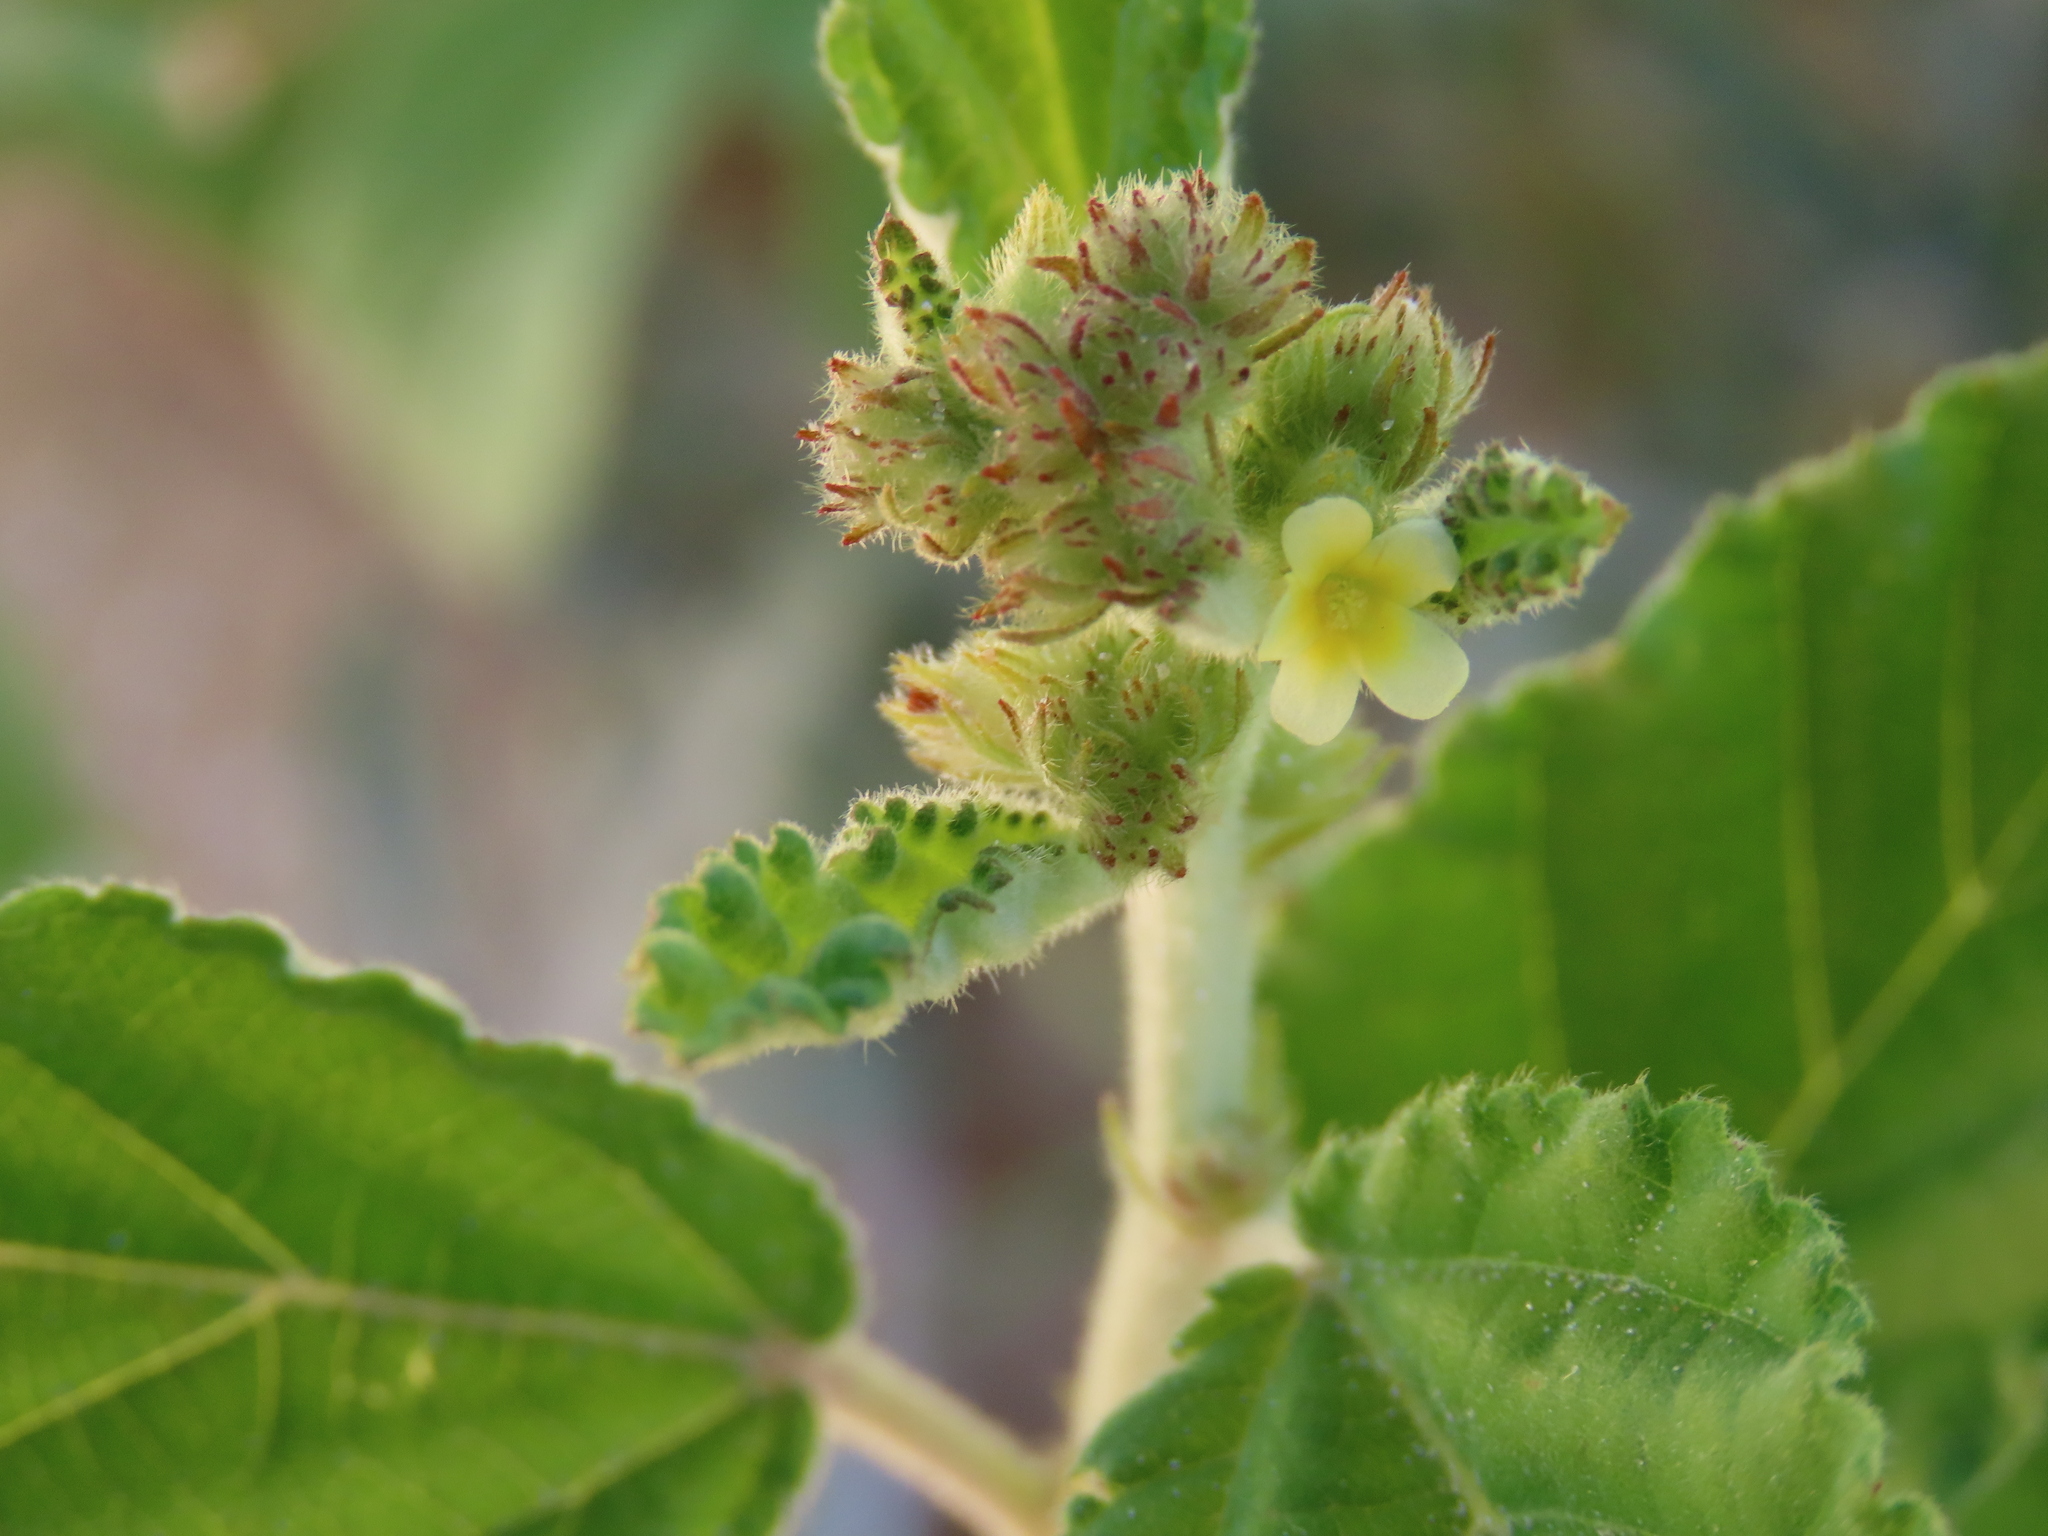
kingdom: Plantae
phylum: Tracheophyta
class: Magnoliopsida
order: Malvales
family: Malvaceae
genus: Waltheria
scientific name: Waltheria indica
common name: Leather-coat
